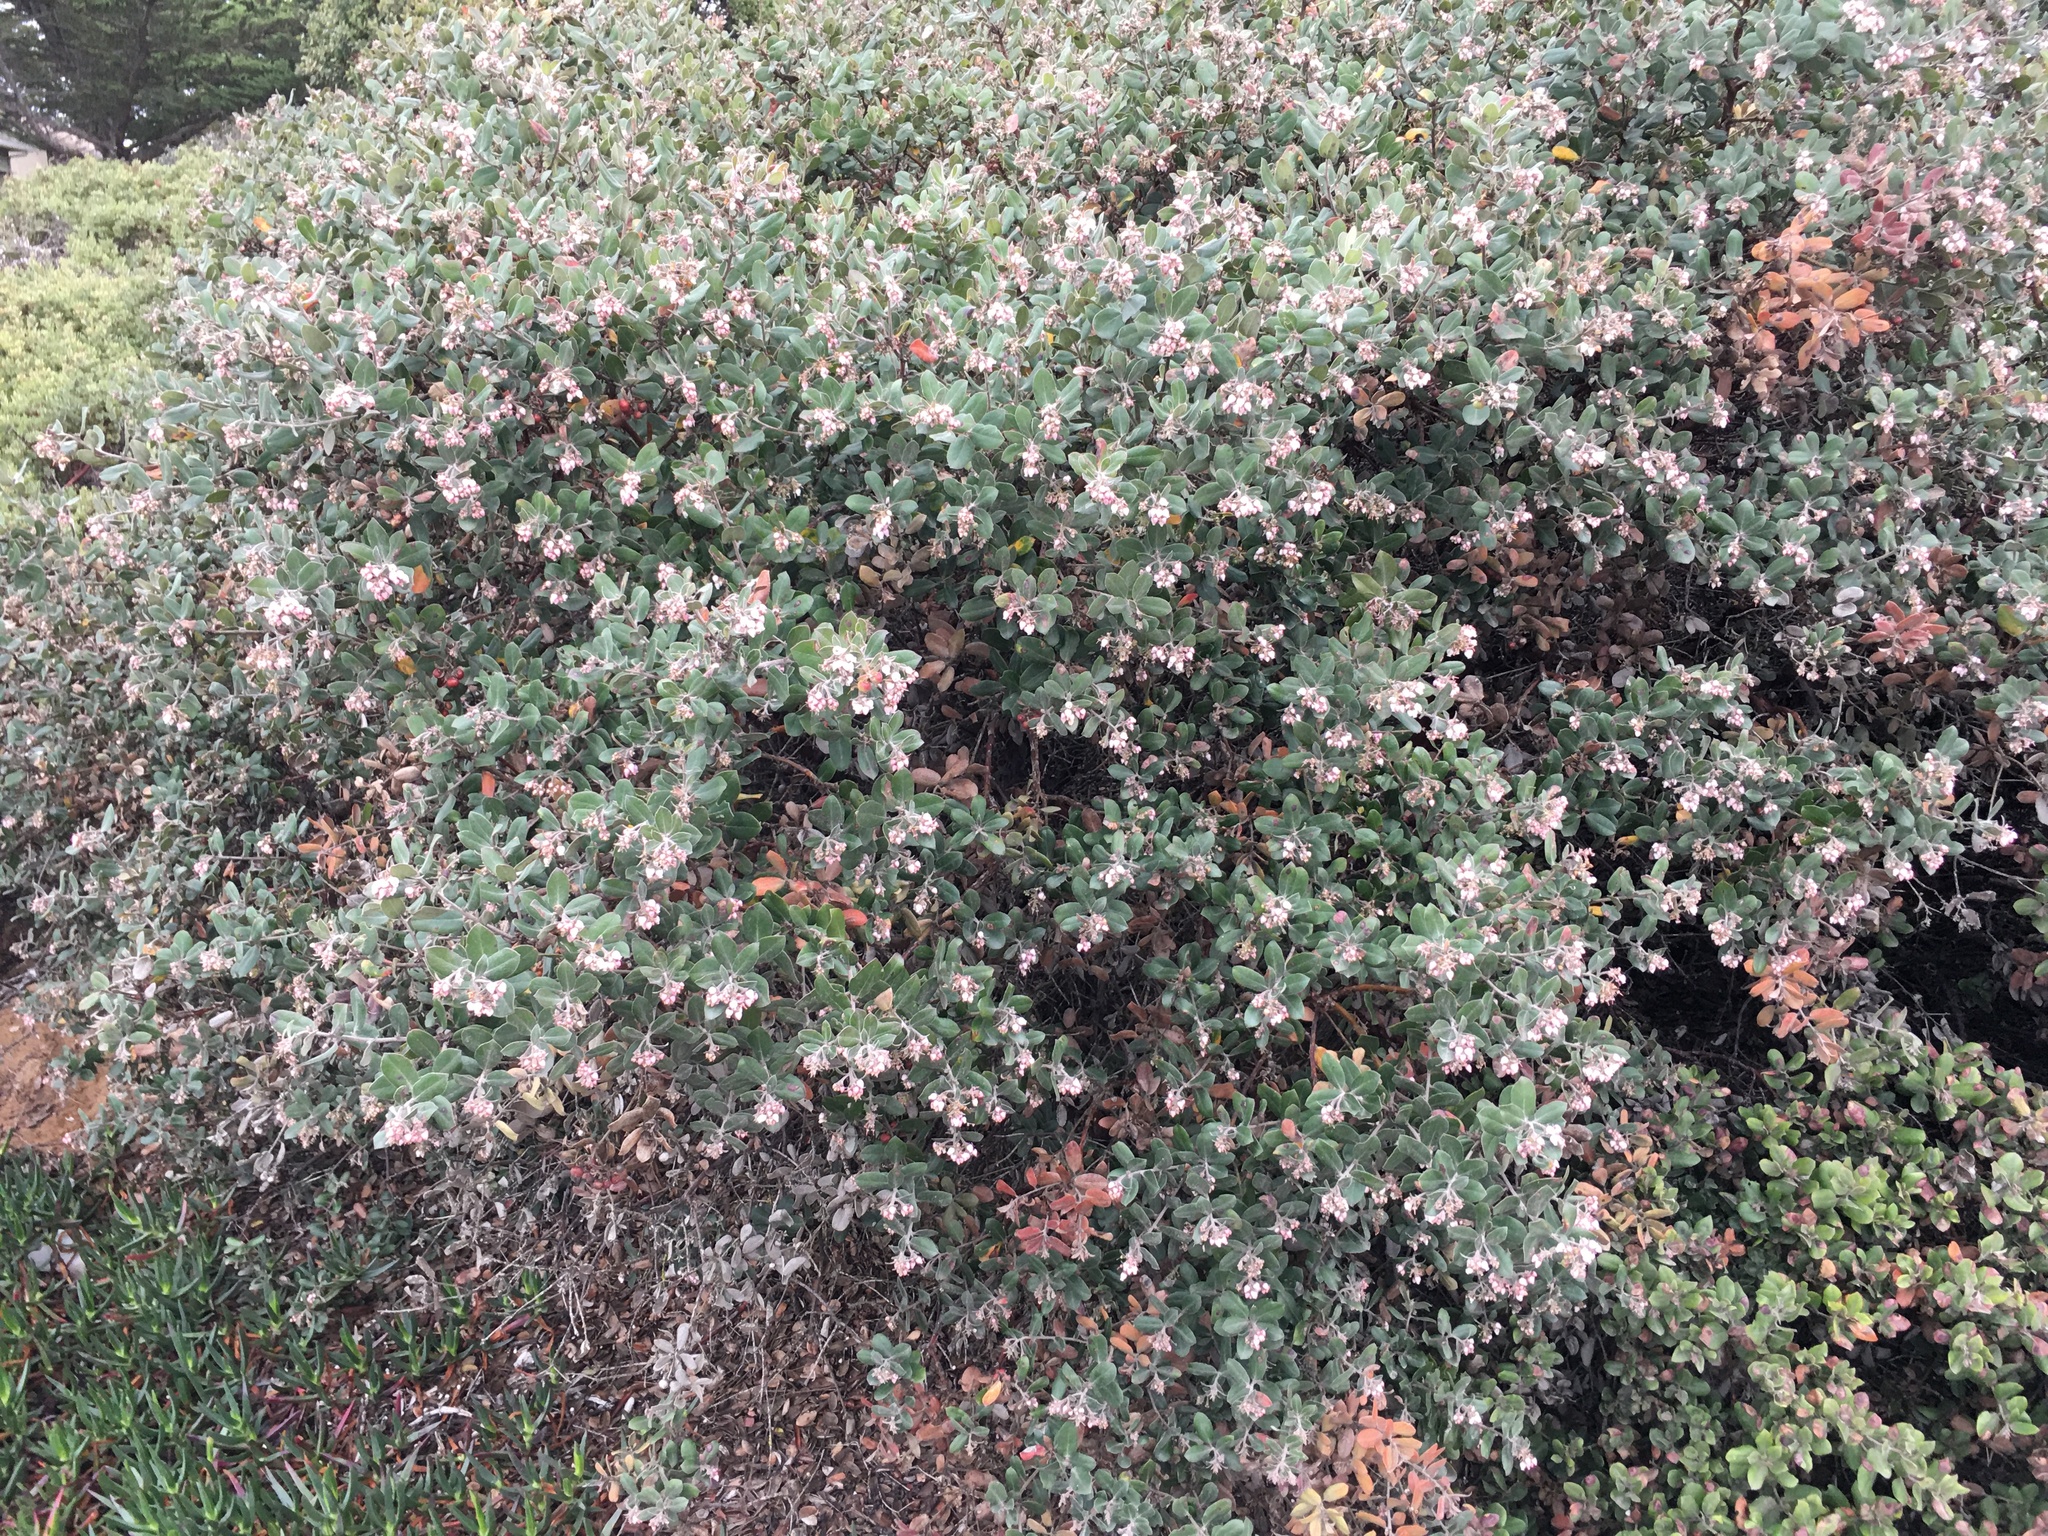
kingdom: Plantae
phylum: Tracheophyta
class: Magnoliopsida
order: Ericales
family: Ericaceae
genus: Arctostaphylos
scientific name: Arctostaphylos tomentosa
